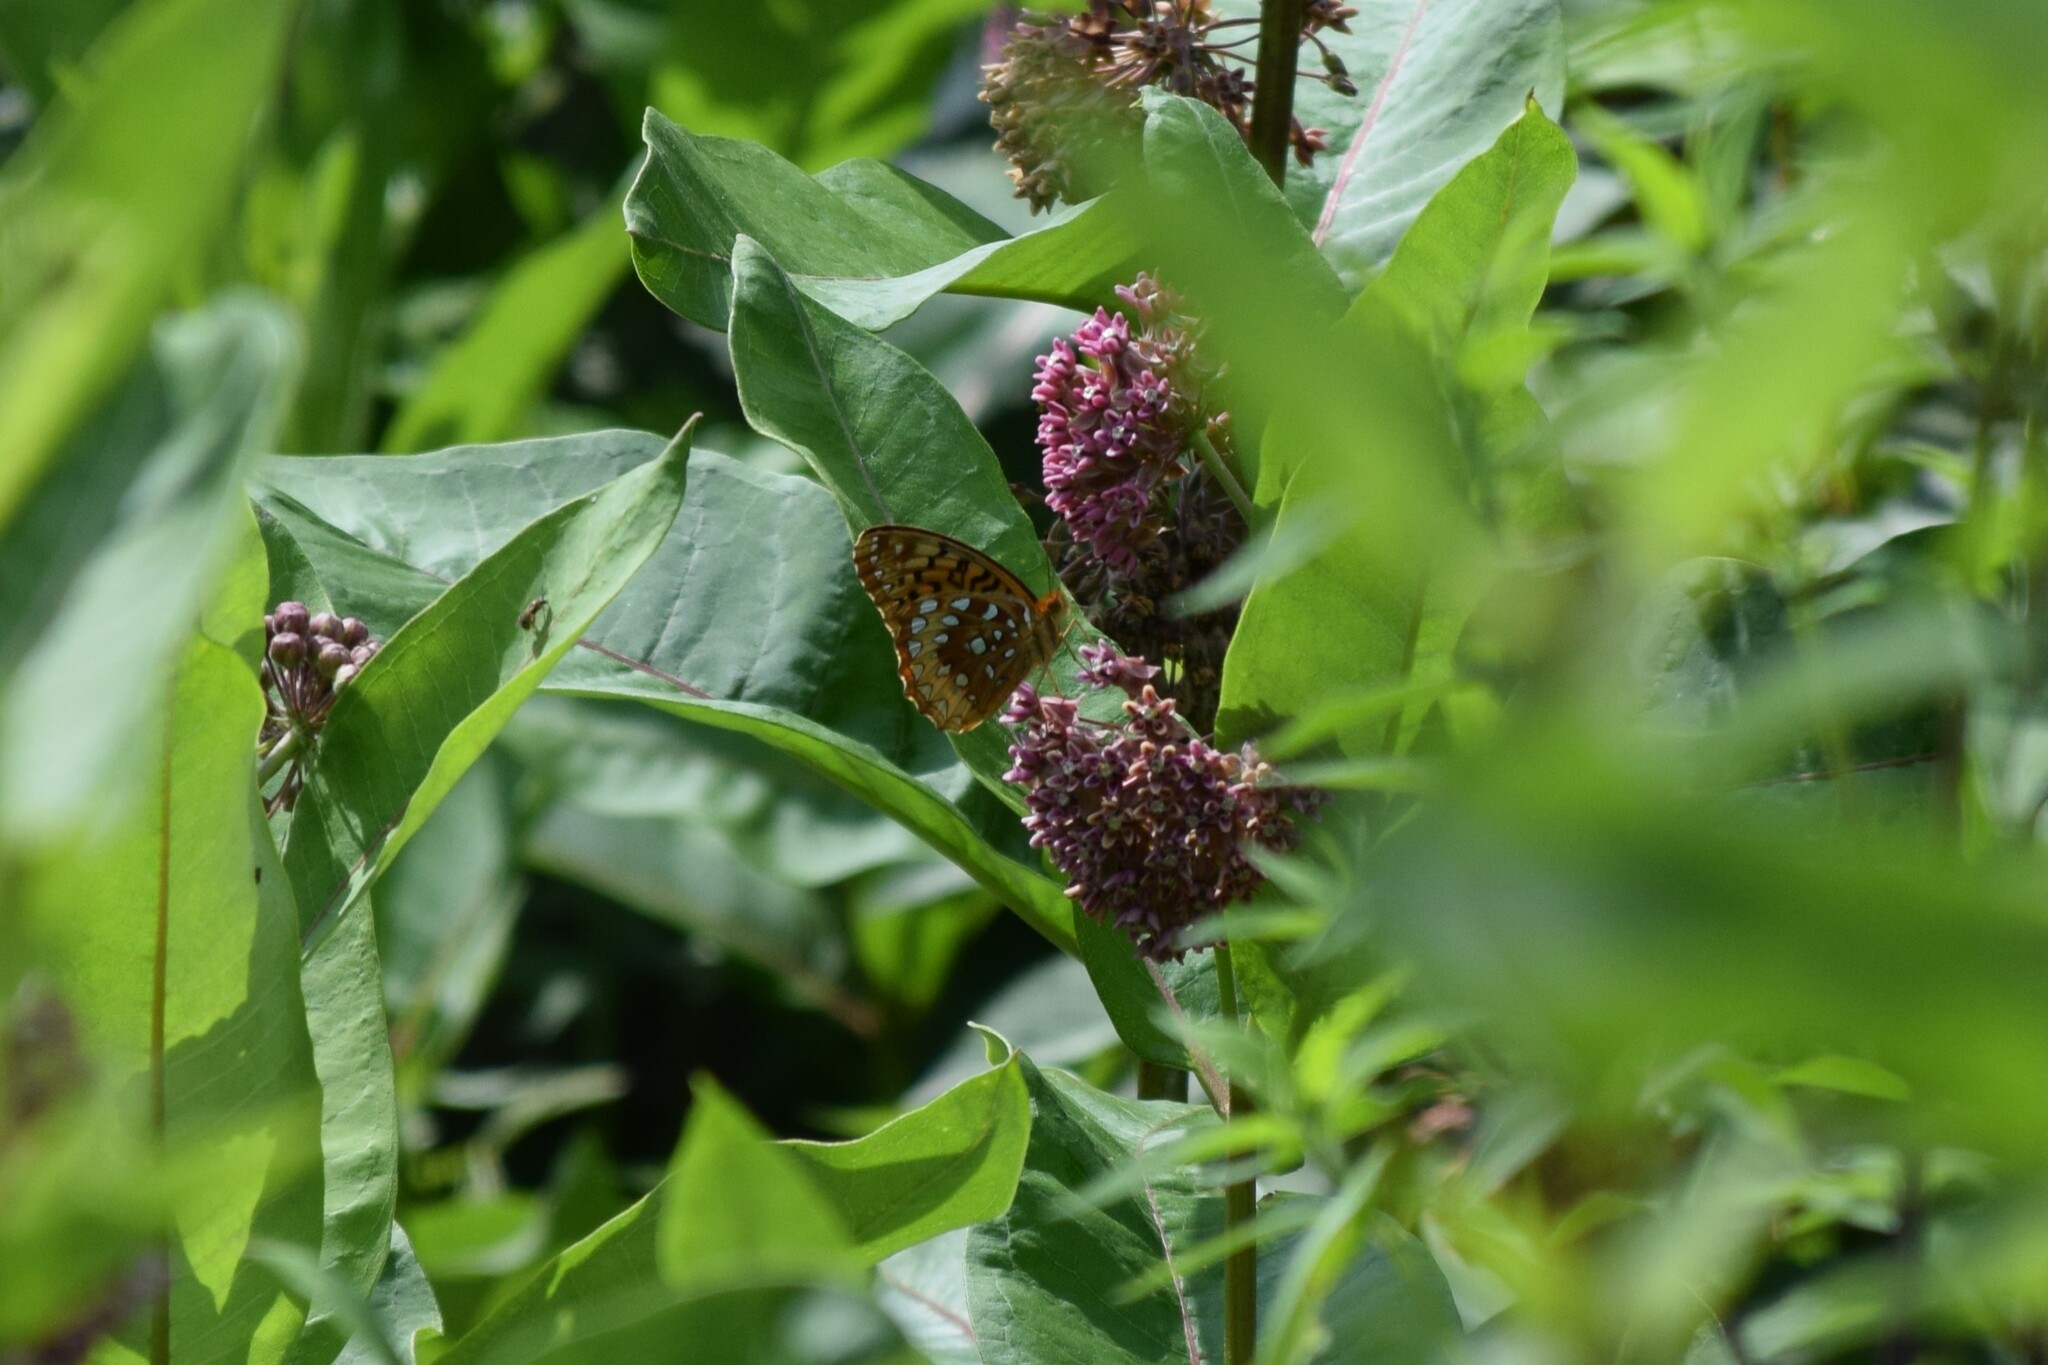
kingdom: Animalia
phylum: Arthropoda
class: Insecta
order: Lepidoptera
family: Nymphalidae
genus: Speyeria
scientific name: Speyeria cybele
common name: Great spangled fritillary
